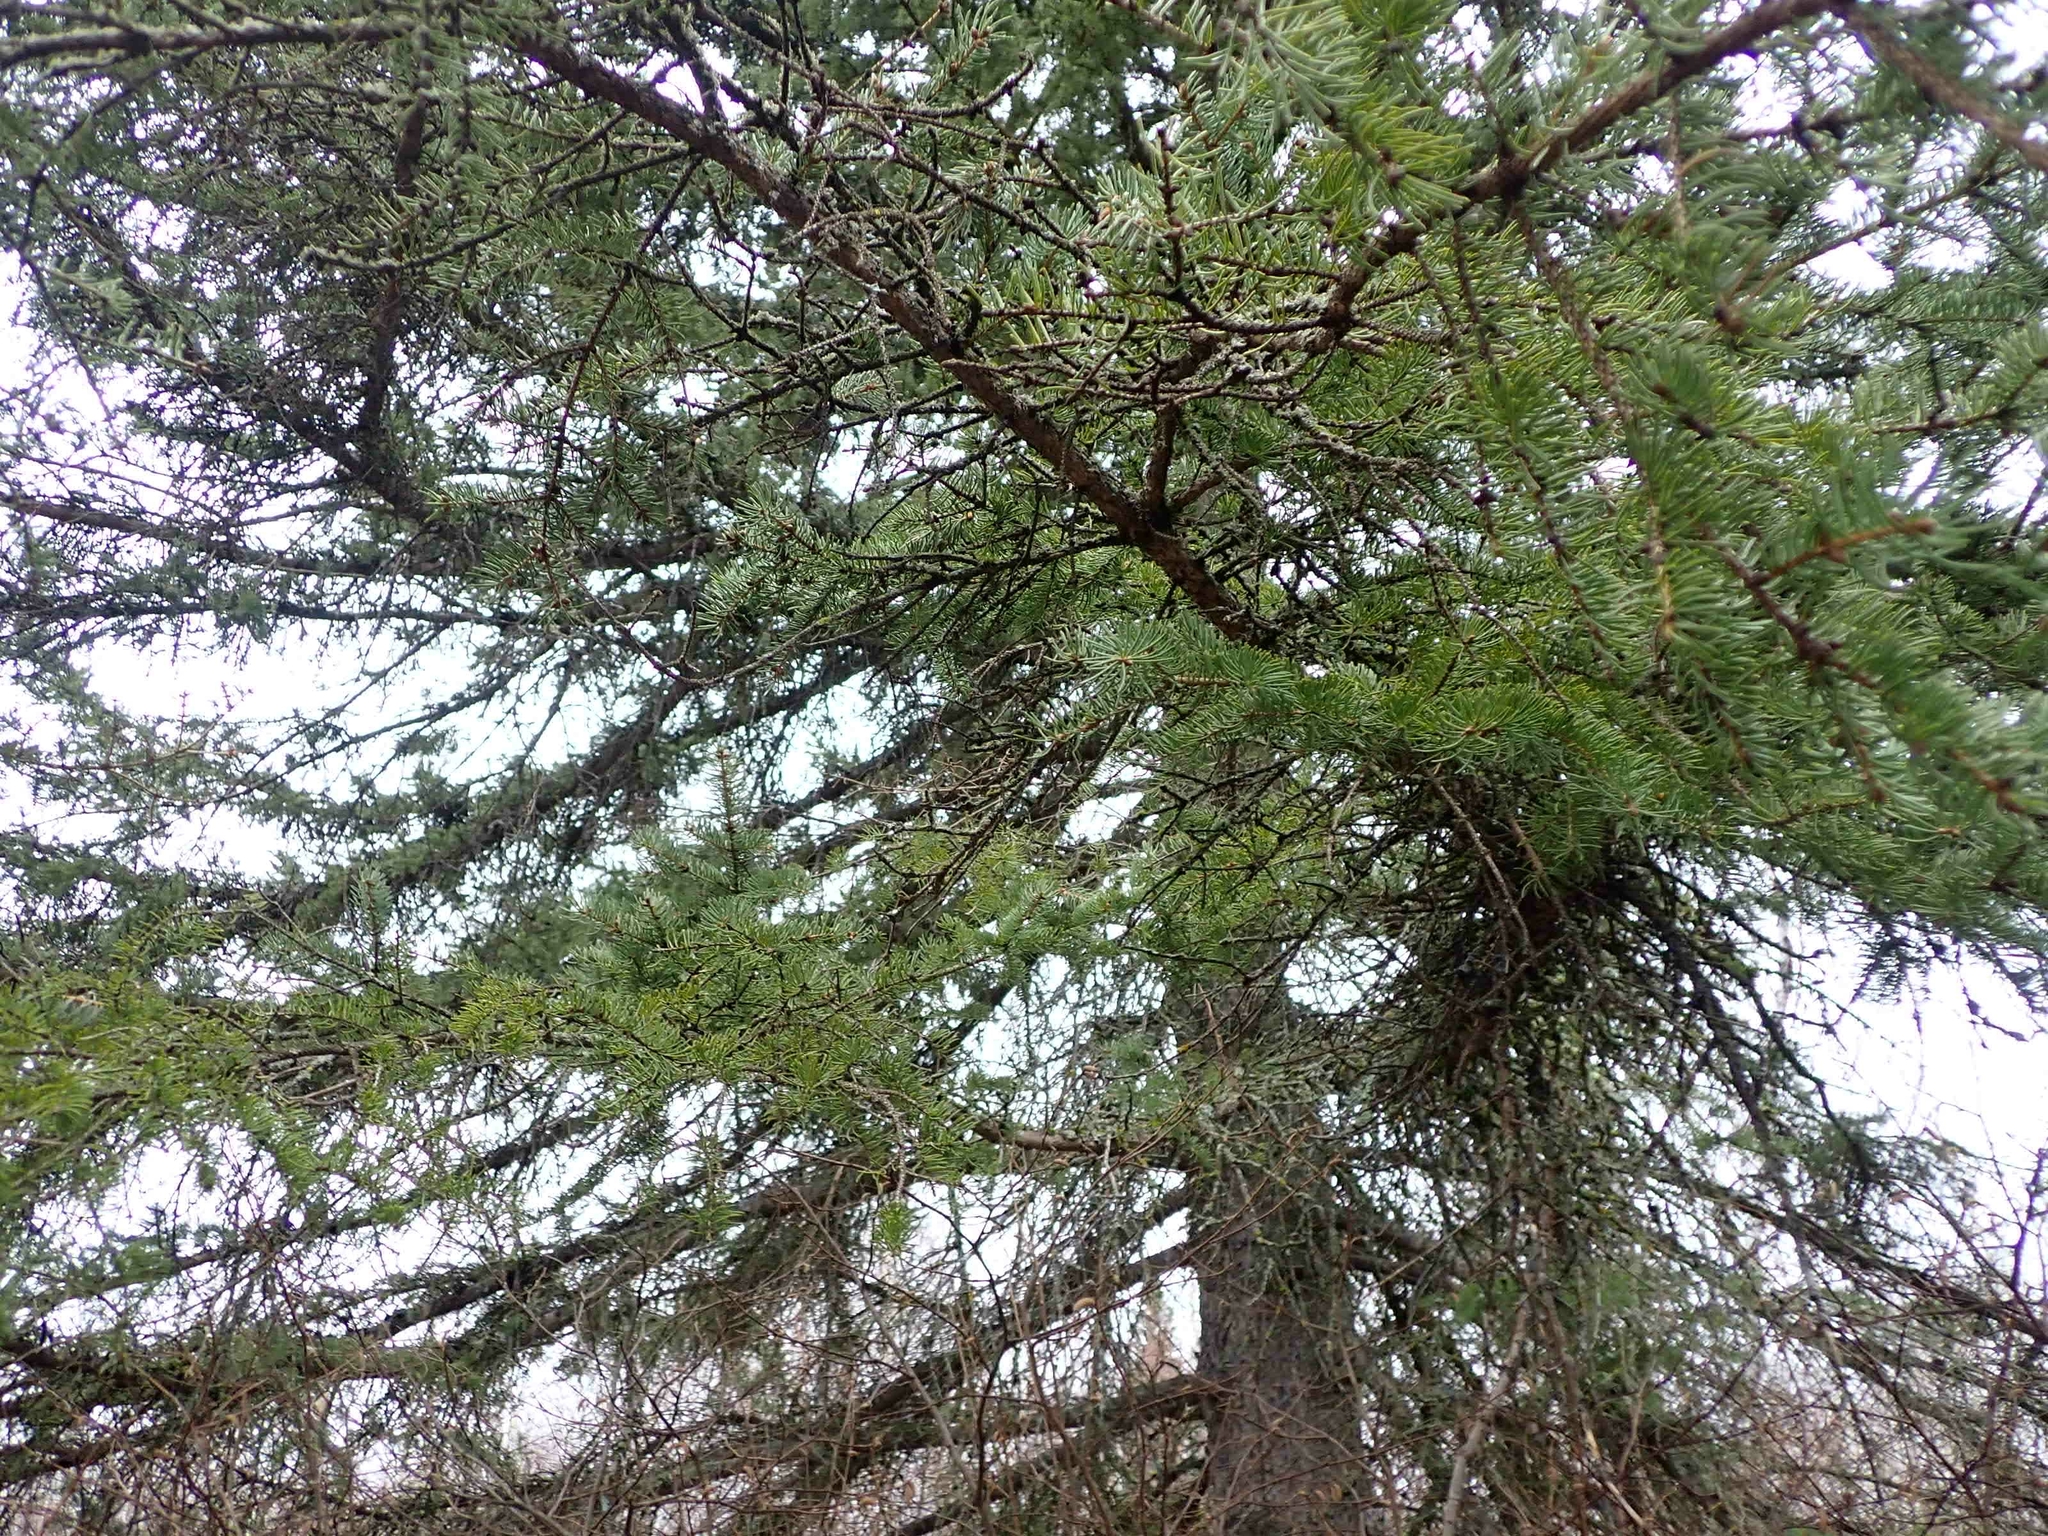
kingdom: Plantae
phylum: Tracheophyta
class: Pinopsida
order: Pinales
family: Pinaceae
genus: Picea
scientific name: Picea glauca
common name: White spruce
